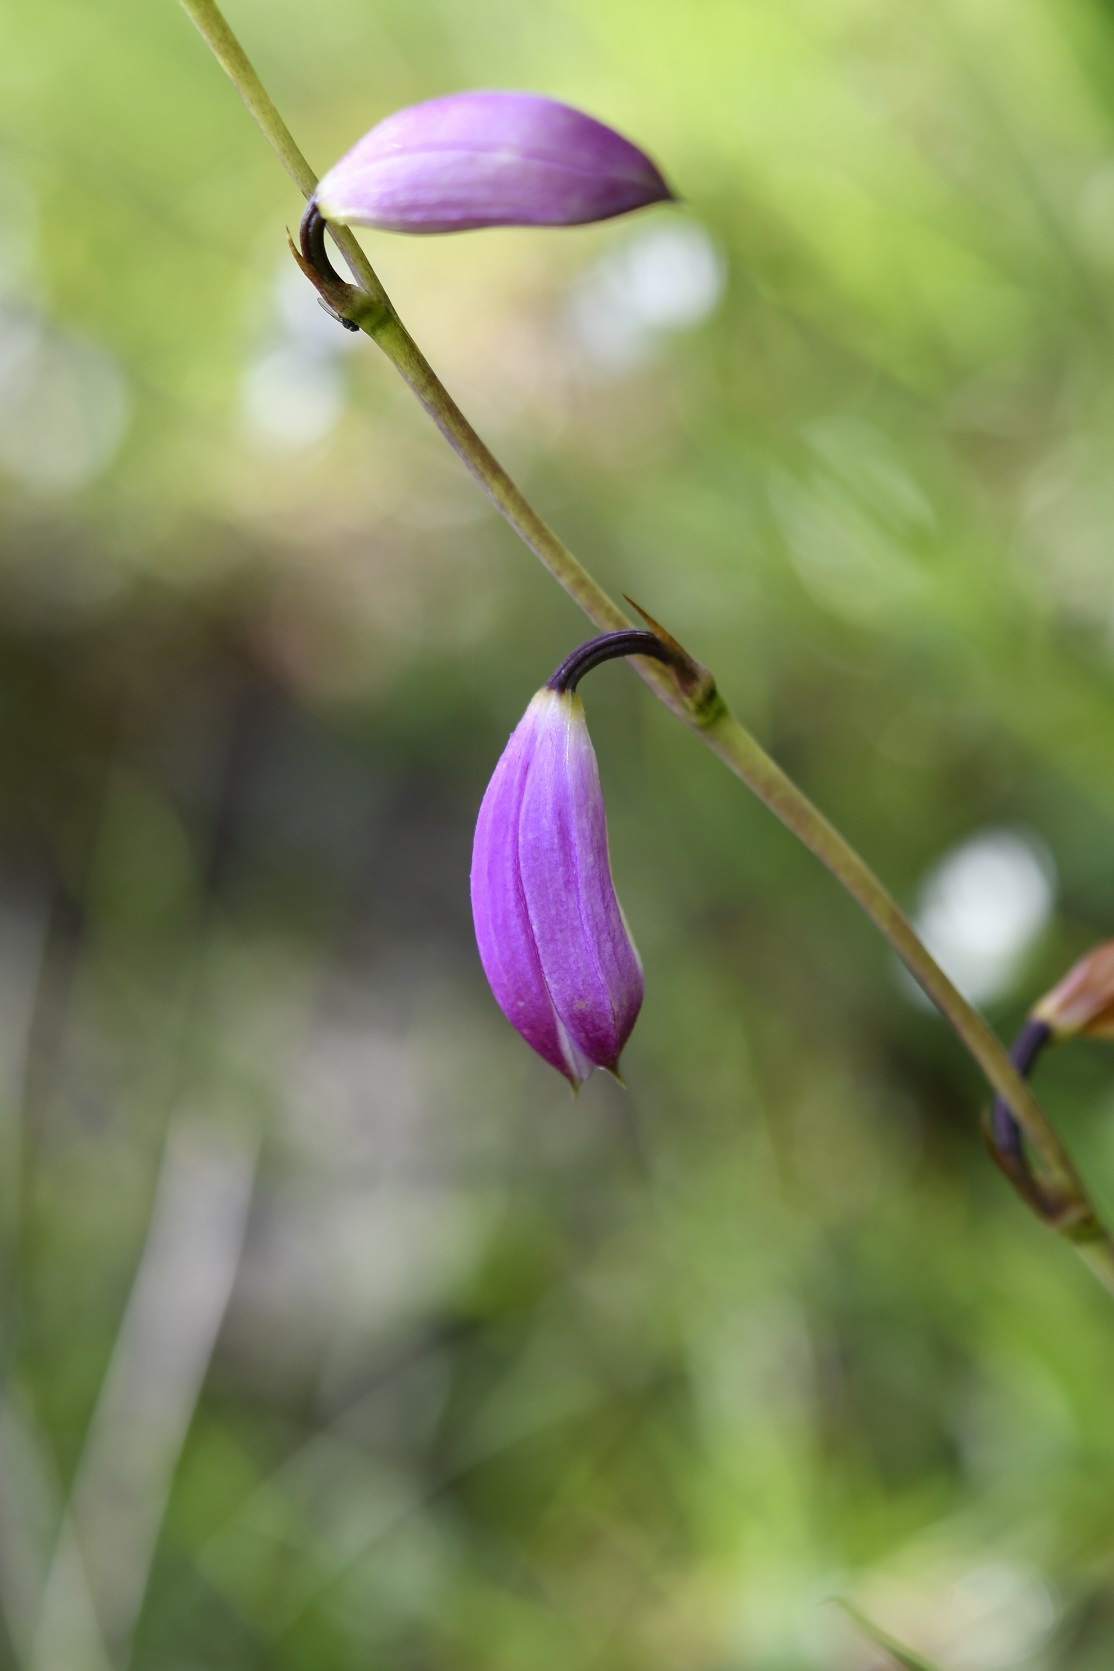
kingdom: Plantae
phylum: Tracheophyta
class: Liliopsida
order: Asparagales
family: Orchidaceae
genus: Bletia
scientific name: Bletia campanulata
